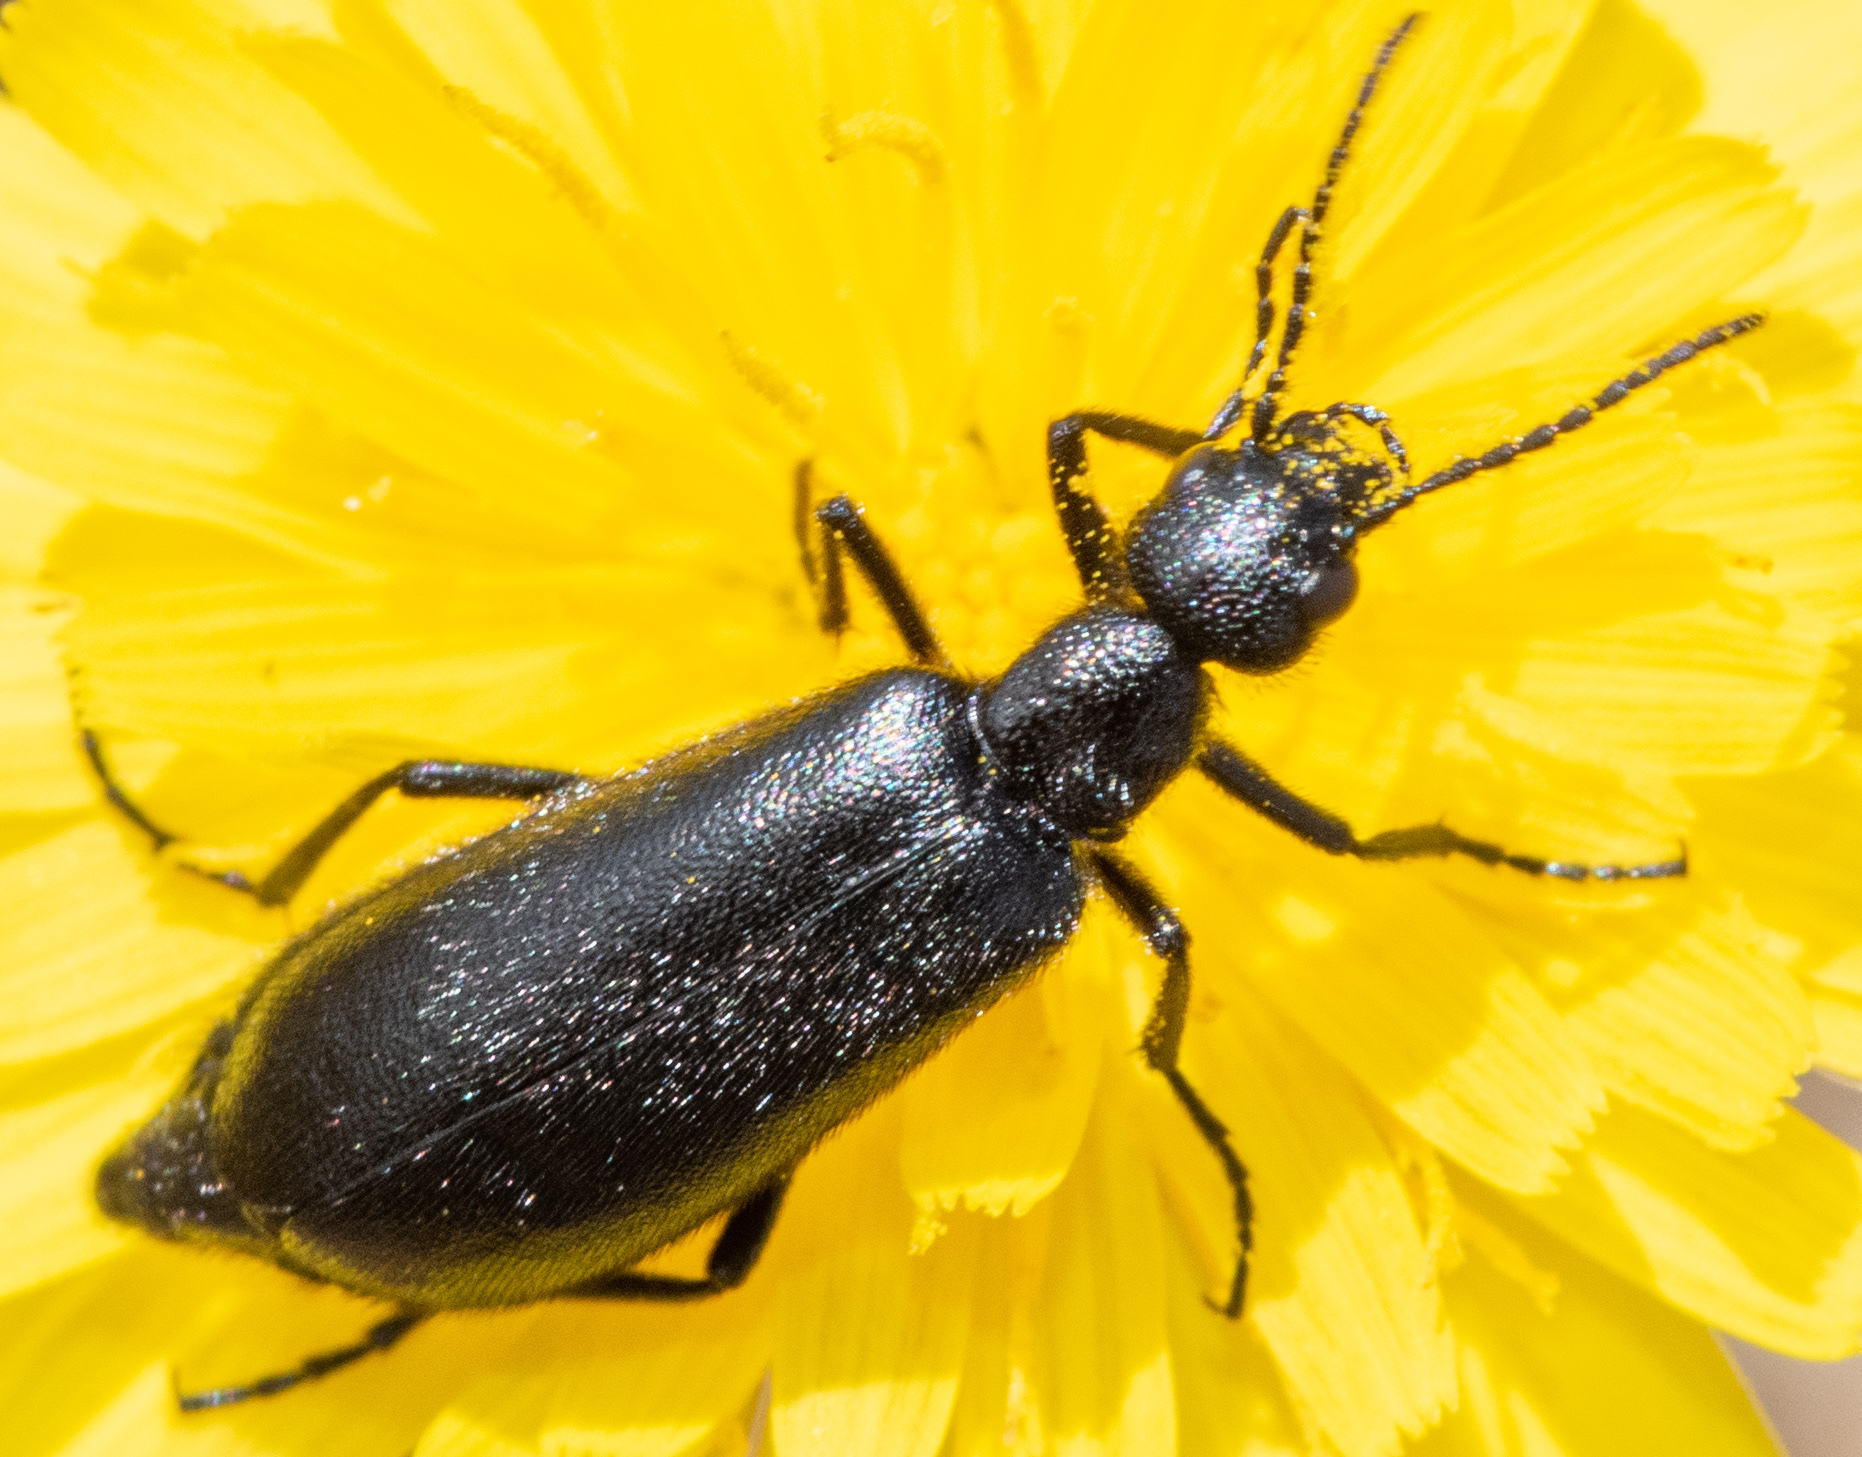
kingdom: Animalia
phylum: Arthropoda
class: Insecta
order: Coleoptera
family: Meloidae
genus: Epicauta
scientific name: Epicauta puncticollis
